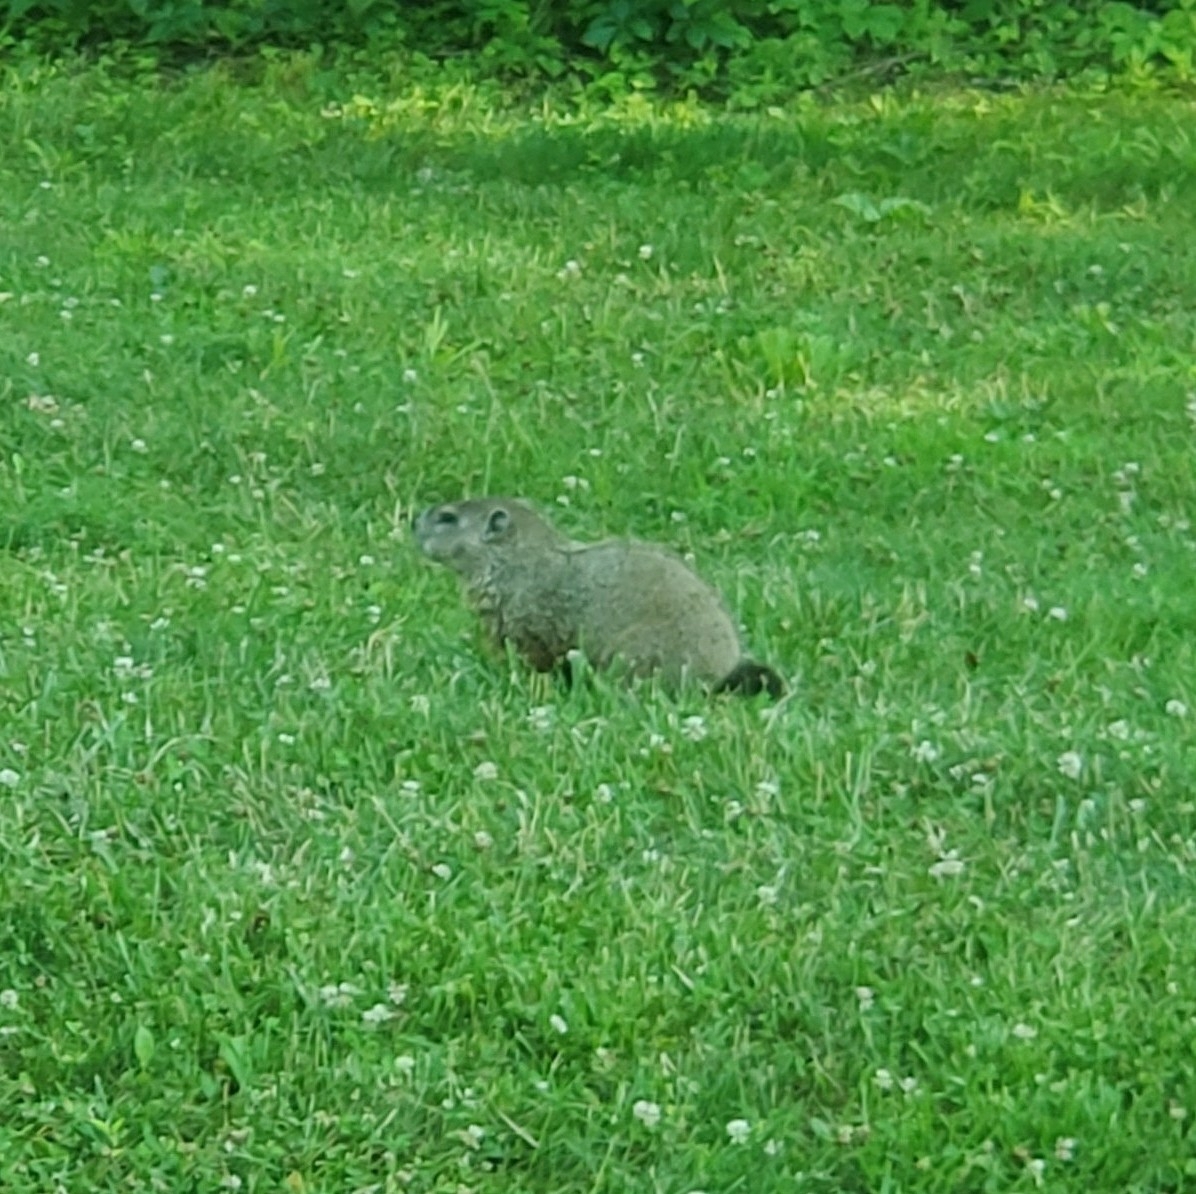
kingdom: Animalia
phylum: Chordata
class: Mammalia
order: Rodentia
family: Sciuridae
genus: Marmota
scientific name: Marmota monax
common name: Groundhog
